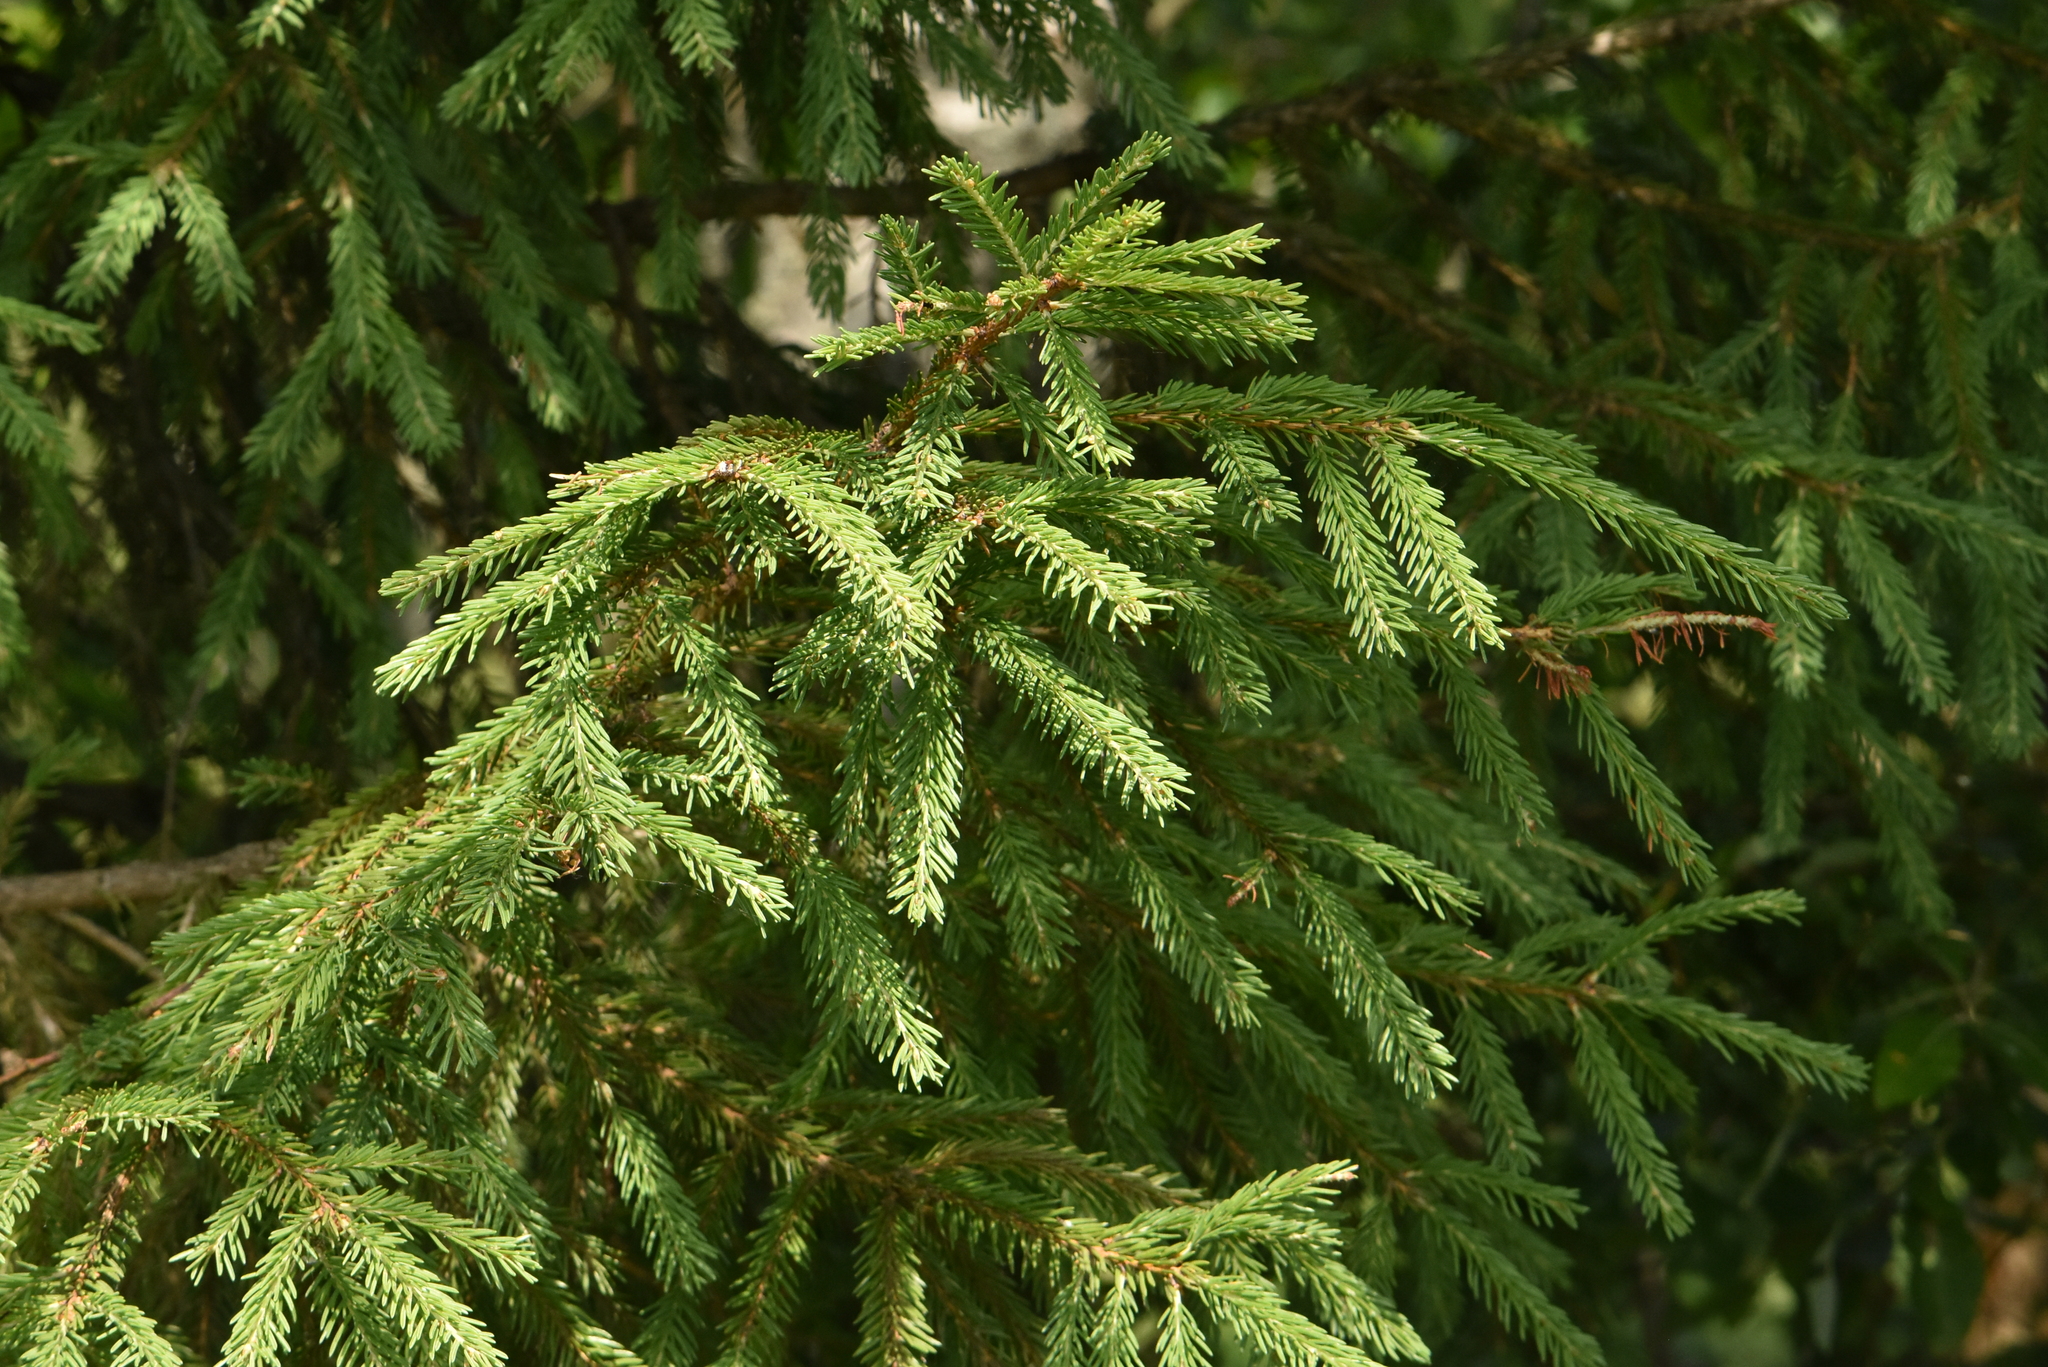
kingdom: Plantae
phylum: Tracheophyta
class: Pinopsida
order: Pinales
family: Pinaceae
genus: Picea
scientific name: Picea abies
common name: Norway spruce
